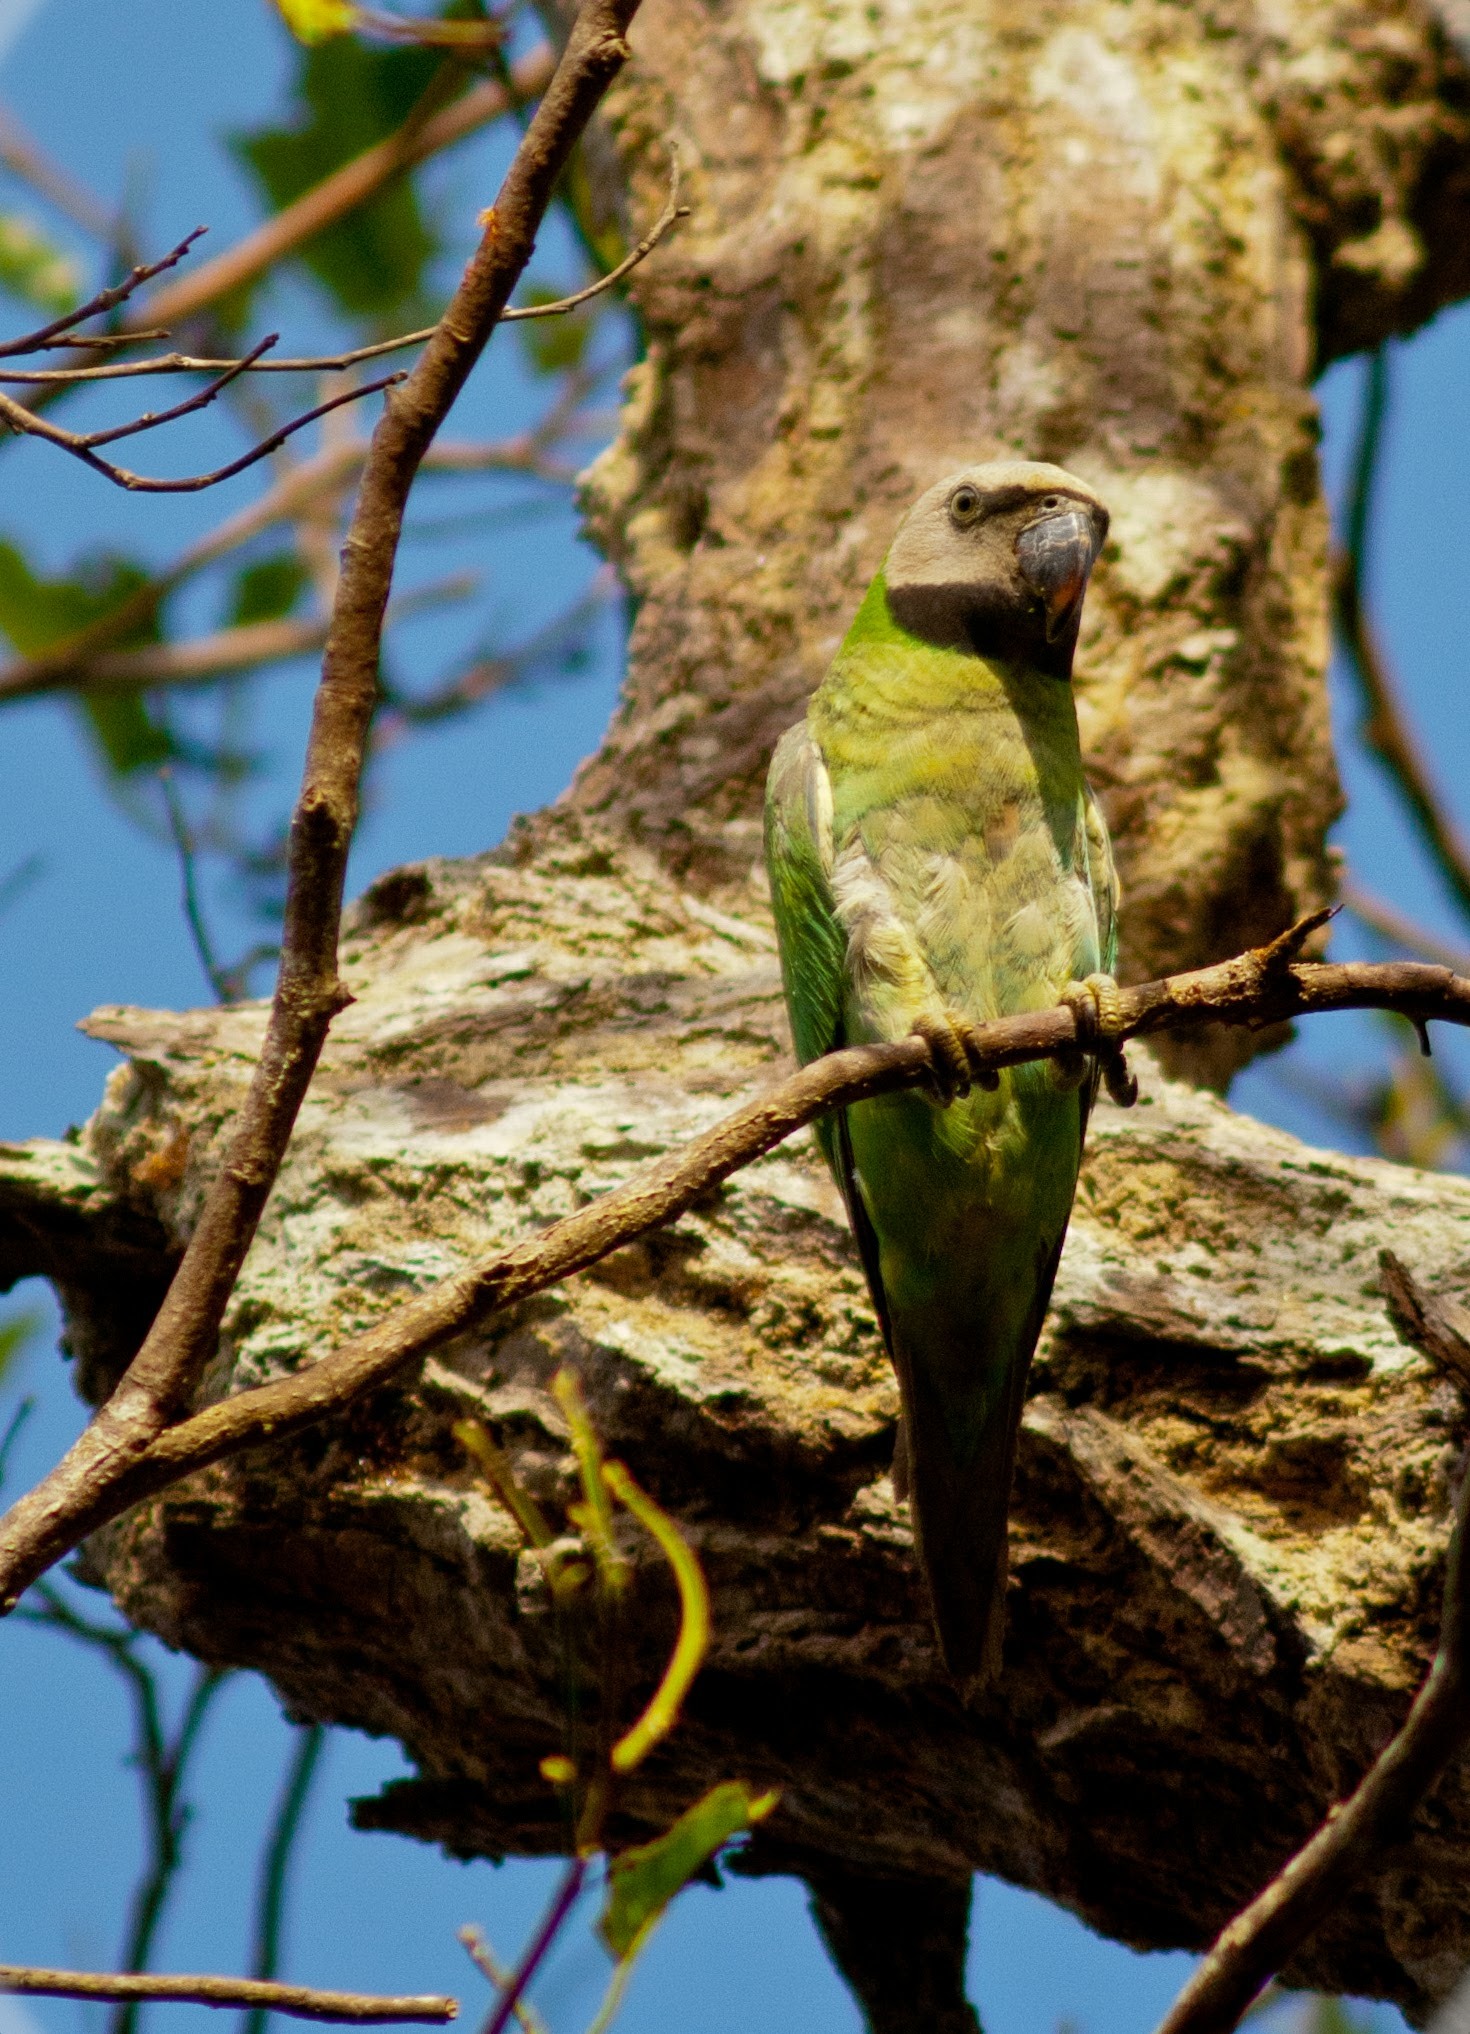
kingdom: Animalia
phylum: Chordata
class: Aves
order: Psittaciformes
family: Psittacidae
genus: Psittacula
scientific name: Psittacula alexandri
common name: Red-breasted parakeet
